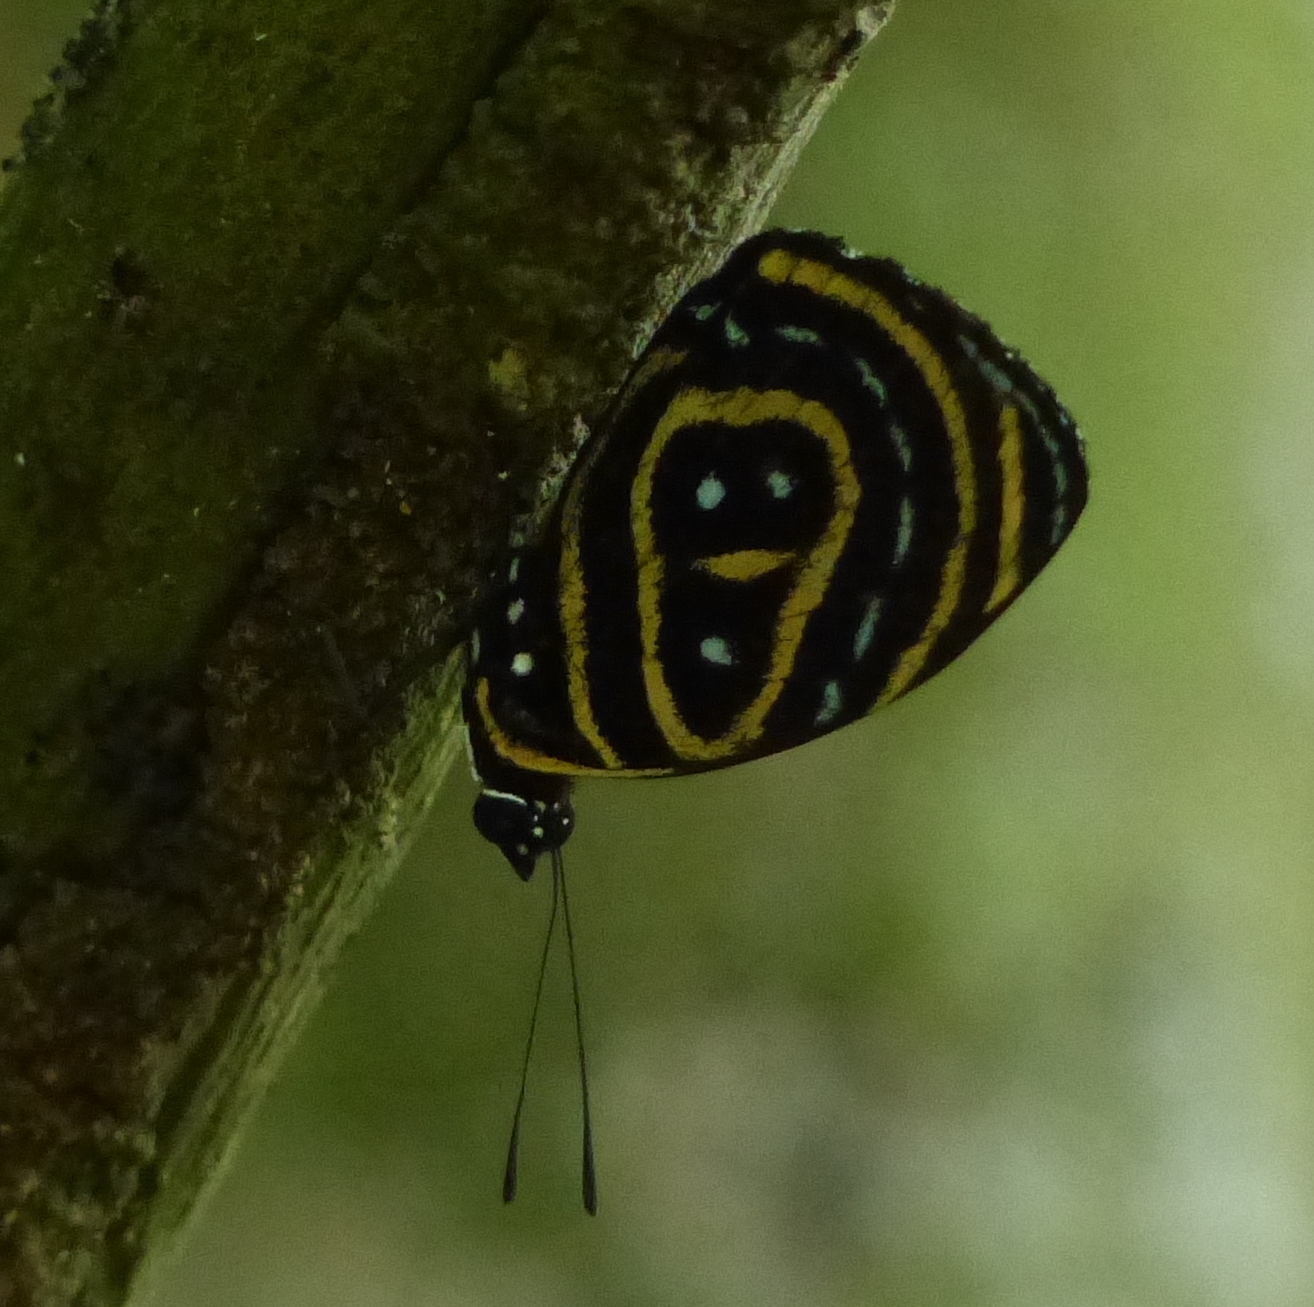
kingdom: Animalia
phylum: Arthropoda
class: Insecta
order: Lepidoptera
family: Nymphalidae
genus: Catagramma
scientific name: Catagramma astarte
